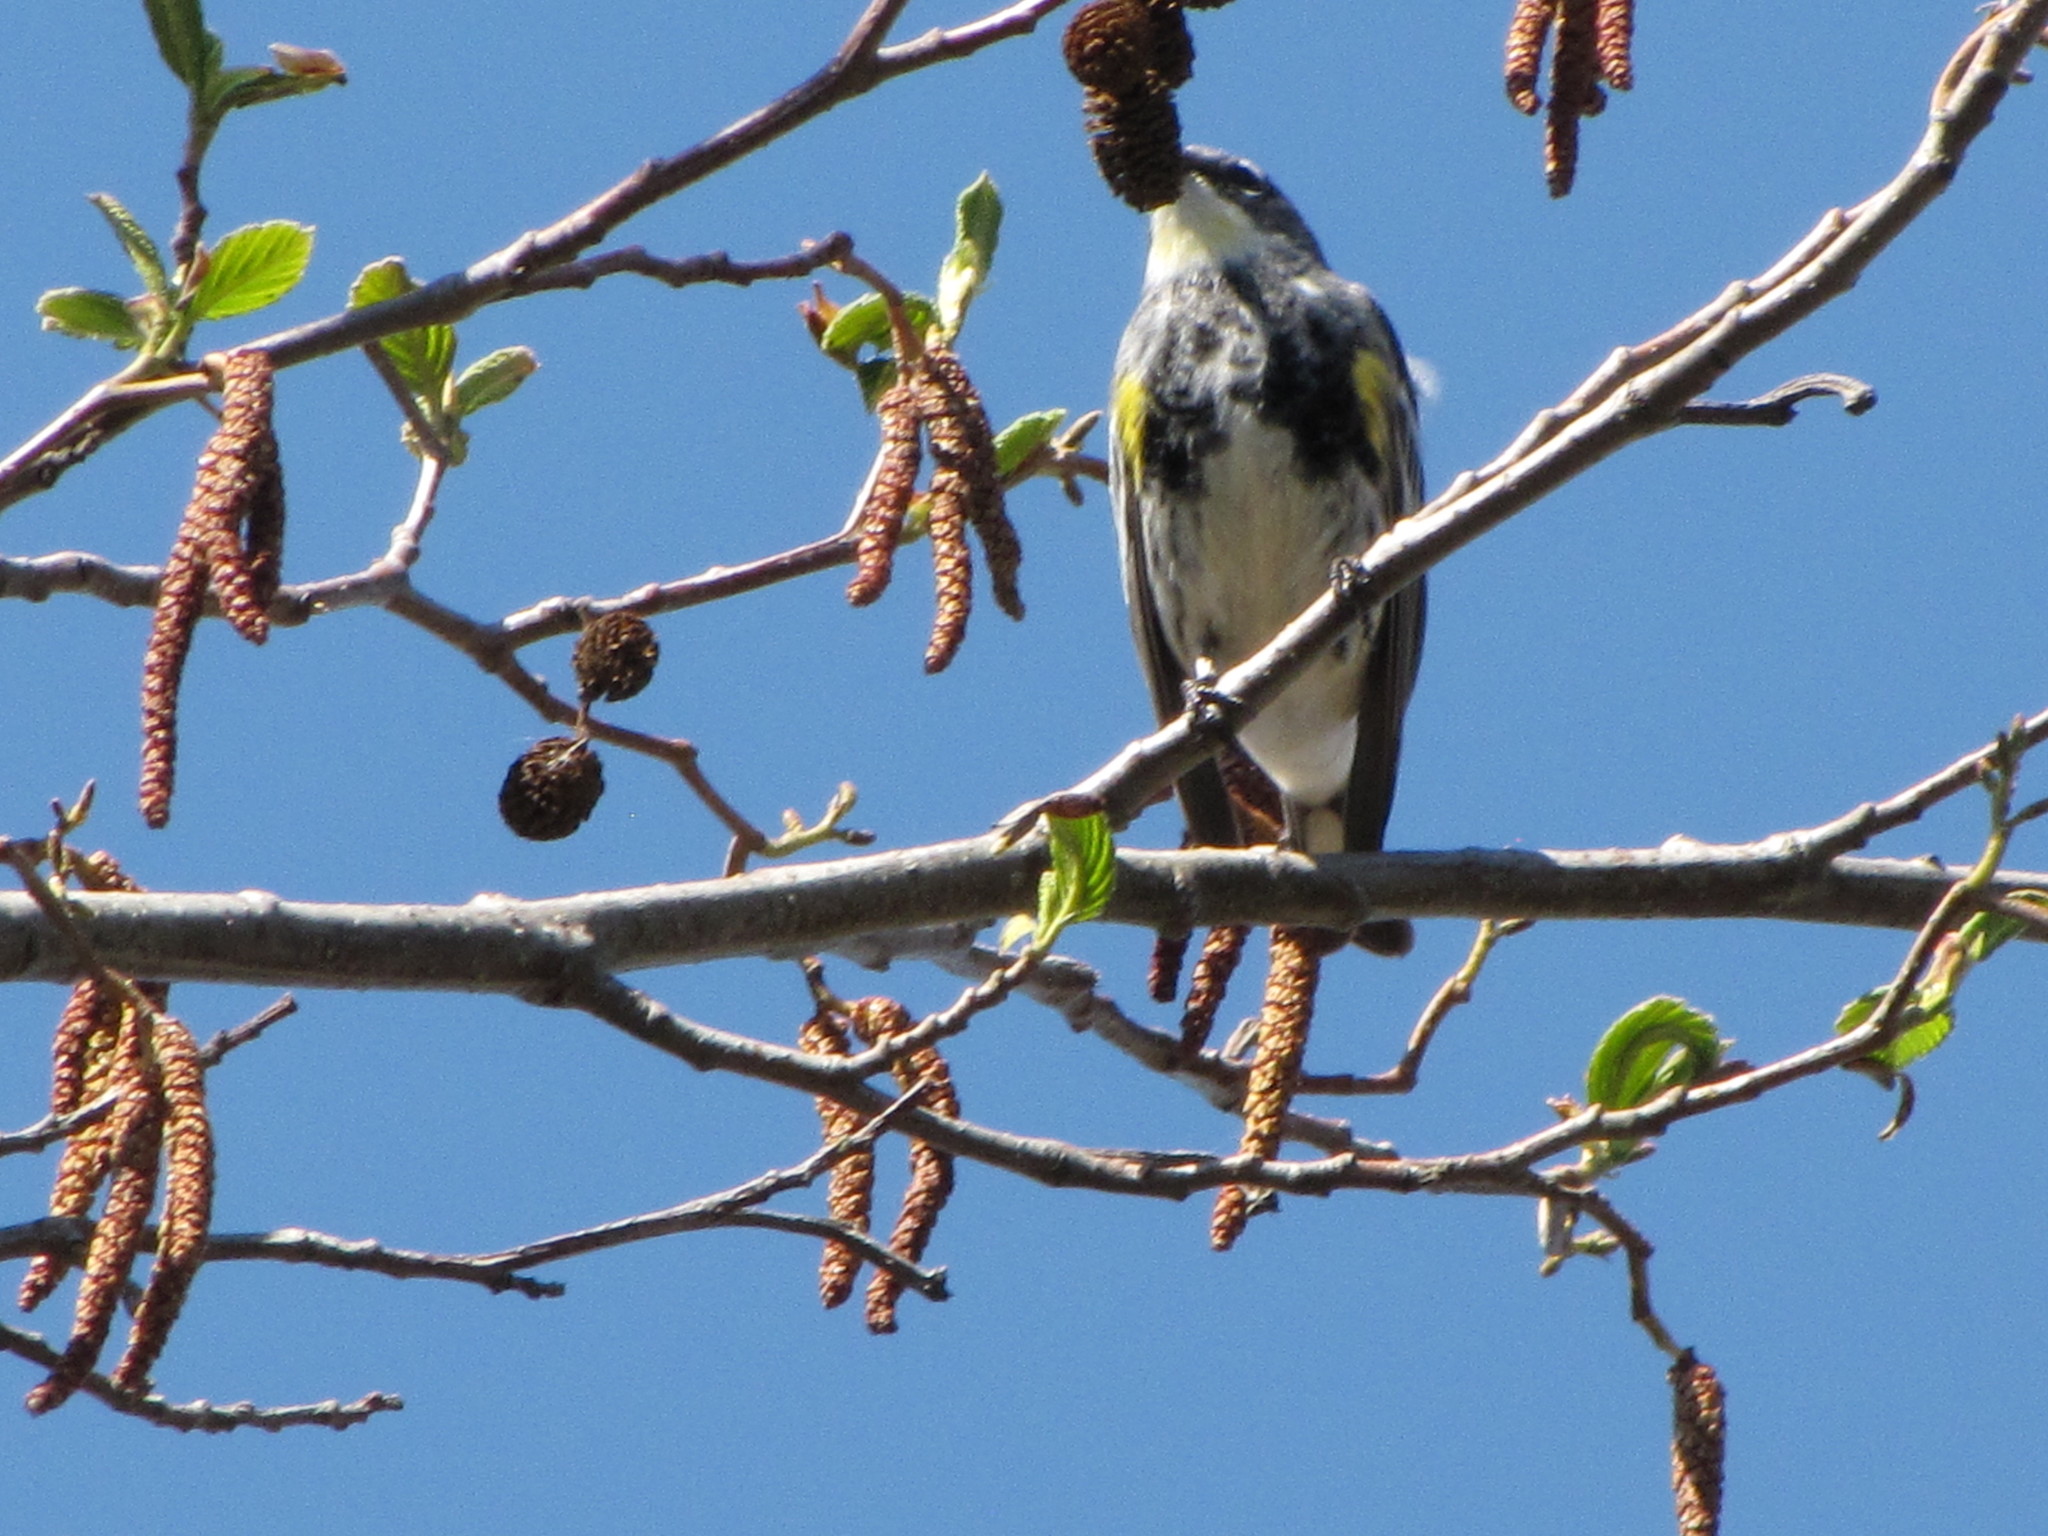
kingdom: Animalia
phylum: Chordata
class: Aves
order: Passeriformes
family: Parulidae
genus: Setophaga
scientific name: Setophaga coronata
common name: Myrtle warbler
